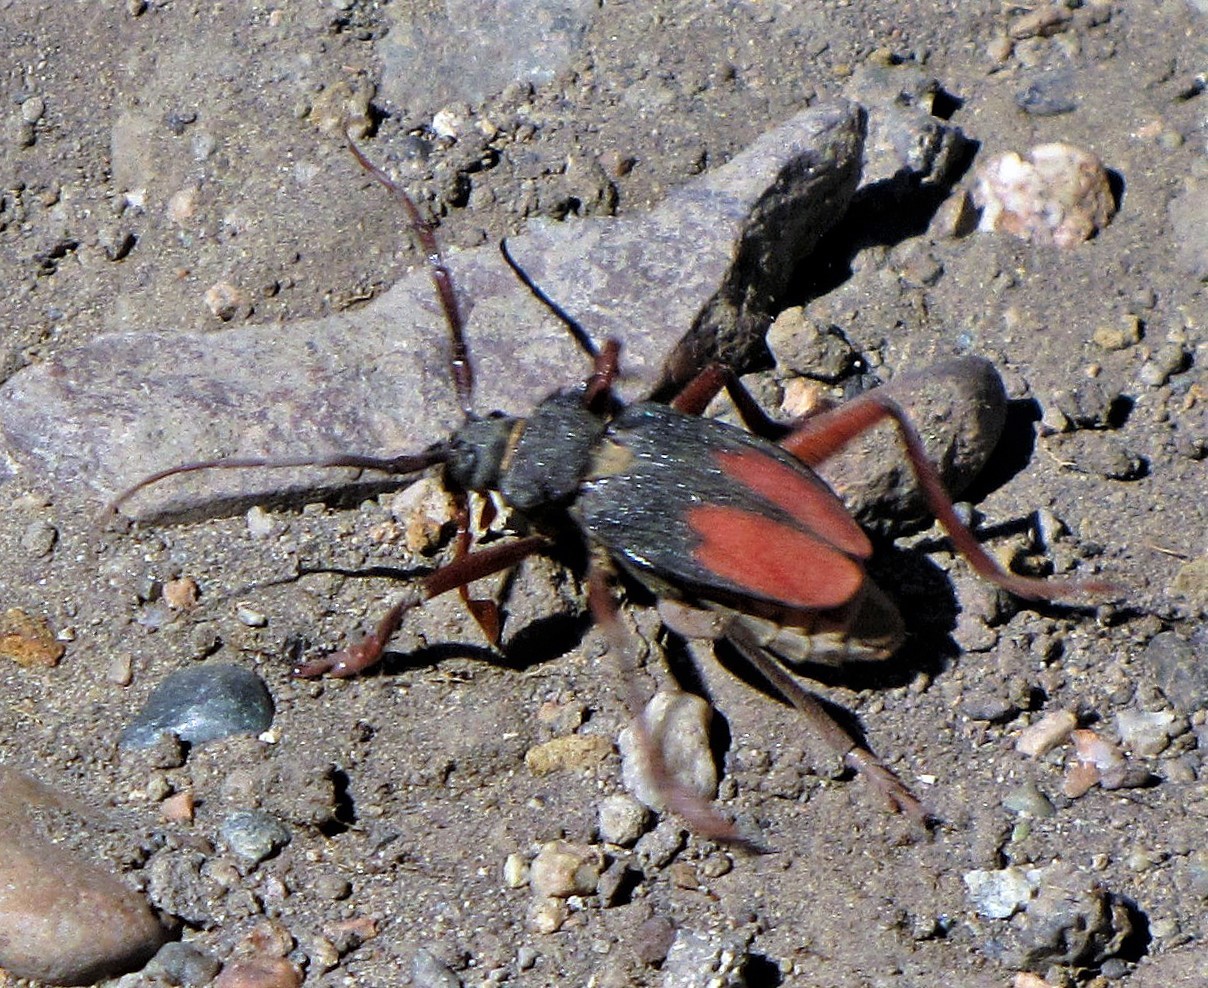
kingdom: Animalia
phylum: Arthropoda
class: Insecta
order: Coleoptera
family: Cerambycidae
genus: Apterocaulus
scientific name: Apterocaulus heterogama
